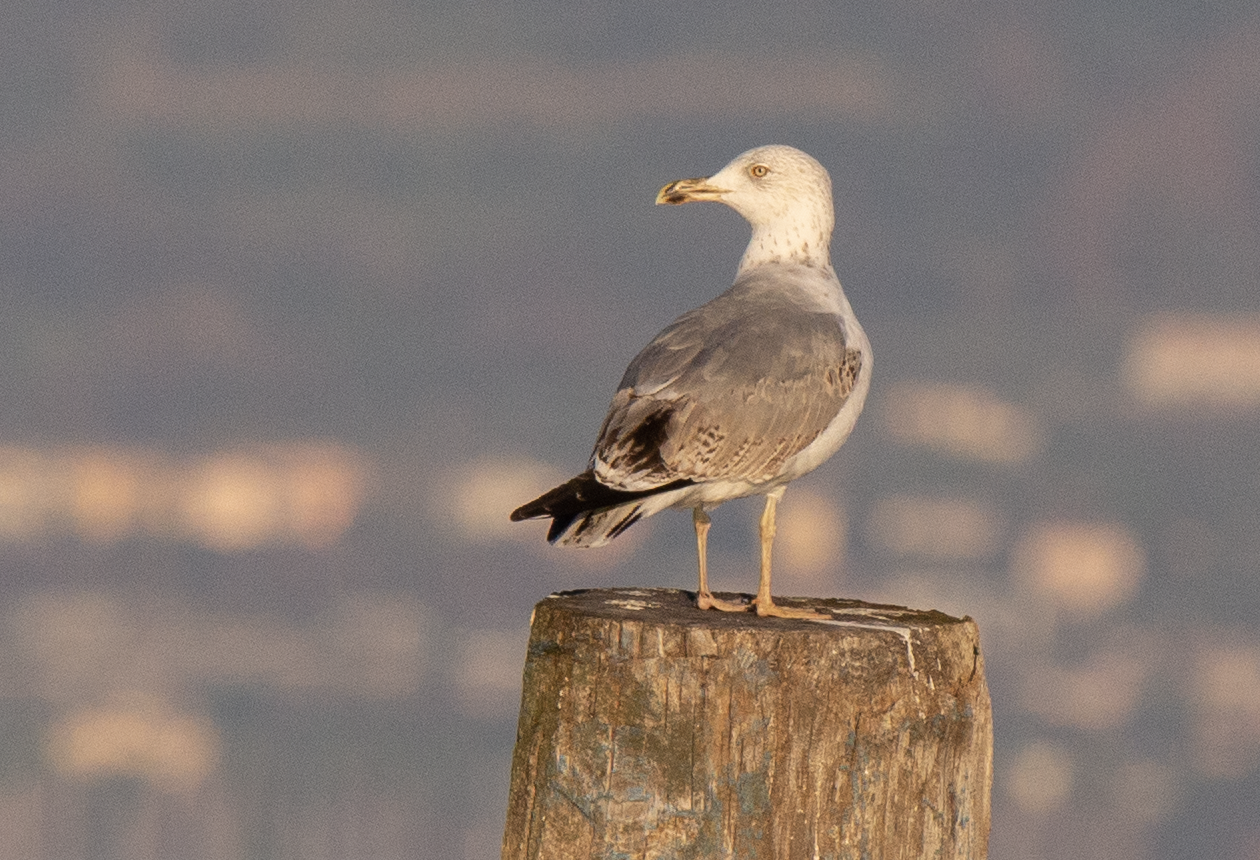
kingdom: Animalia
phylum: Chordata
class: Aves
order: Charadriiformes
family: Laridae
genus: Larus
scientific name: Larus michahellis
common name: Yellow-legged gull
